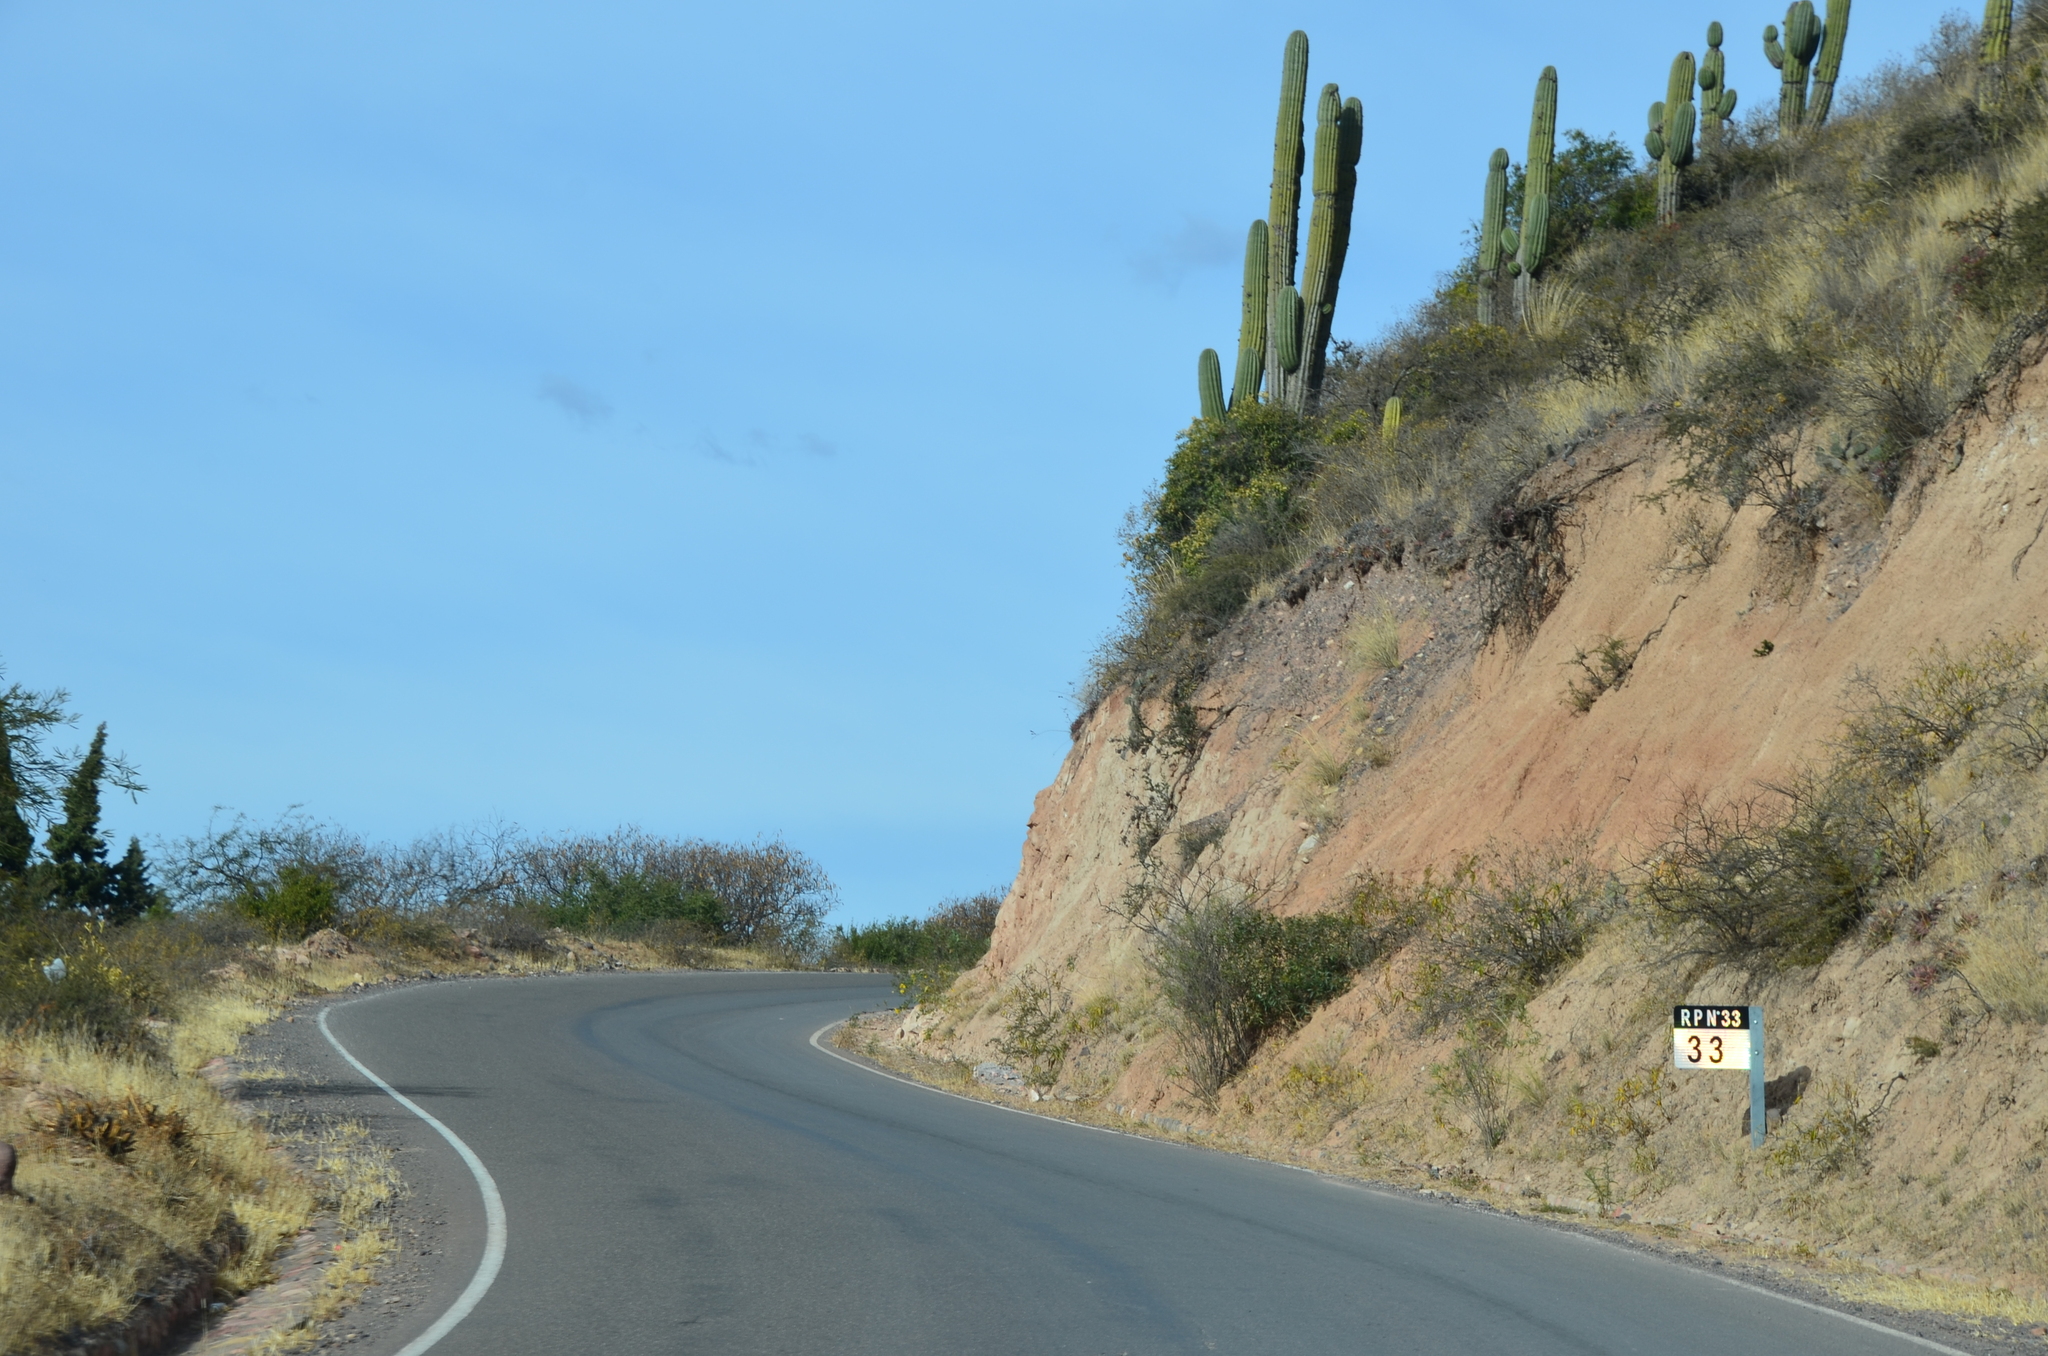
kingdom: Plantae
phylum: Tracheophyta
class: Magnoliopsida
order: Caryophyllales
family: Cactaceae
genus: Leucostele
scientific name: Leucostele terscheckii
